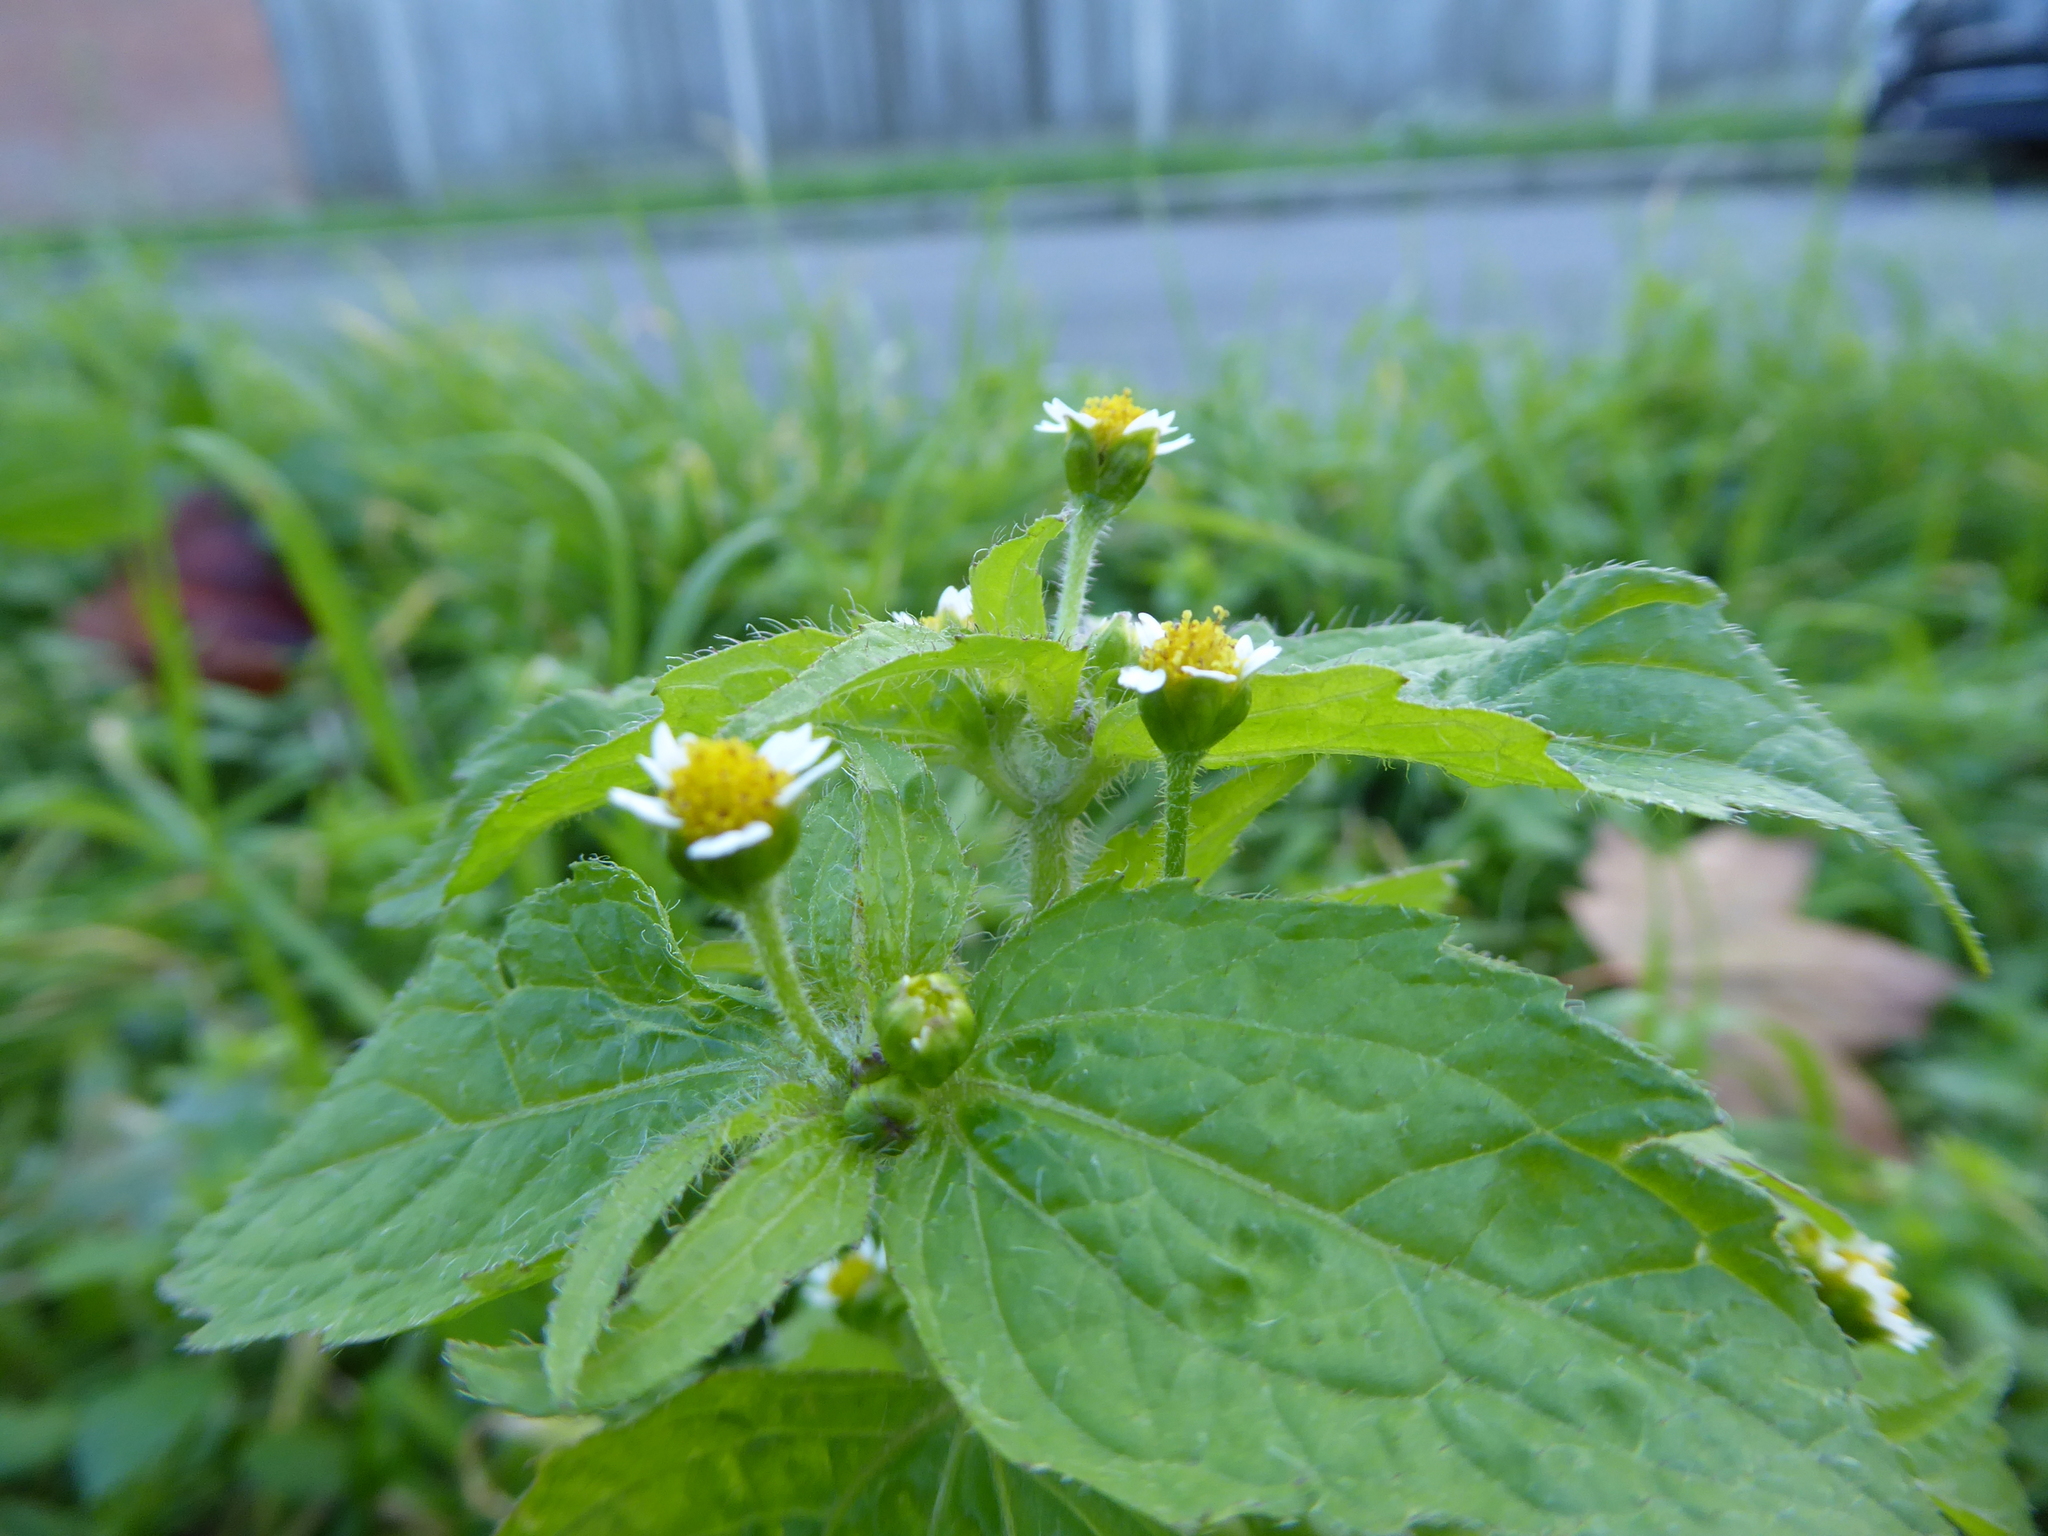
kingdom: Plantae
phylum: Tracheophyta
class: Magnoliopsida
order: Asterales
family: Asteraceae
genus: Galinsoga
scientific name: Galinsoga quadriradiata
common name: Shaggy soldier
